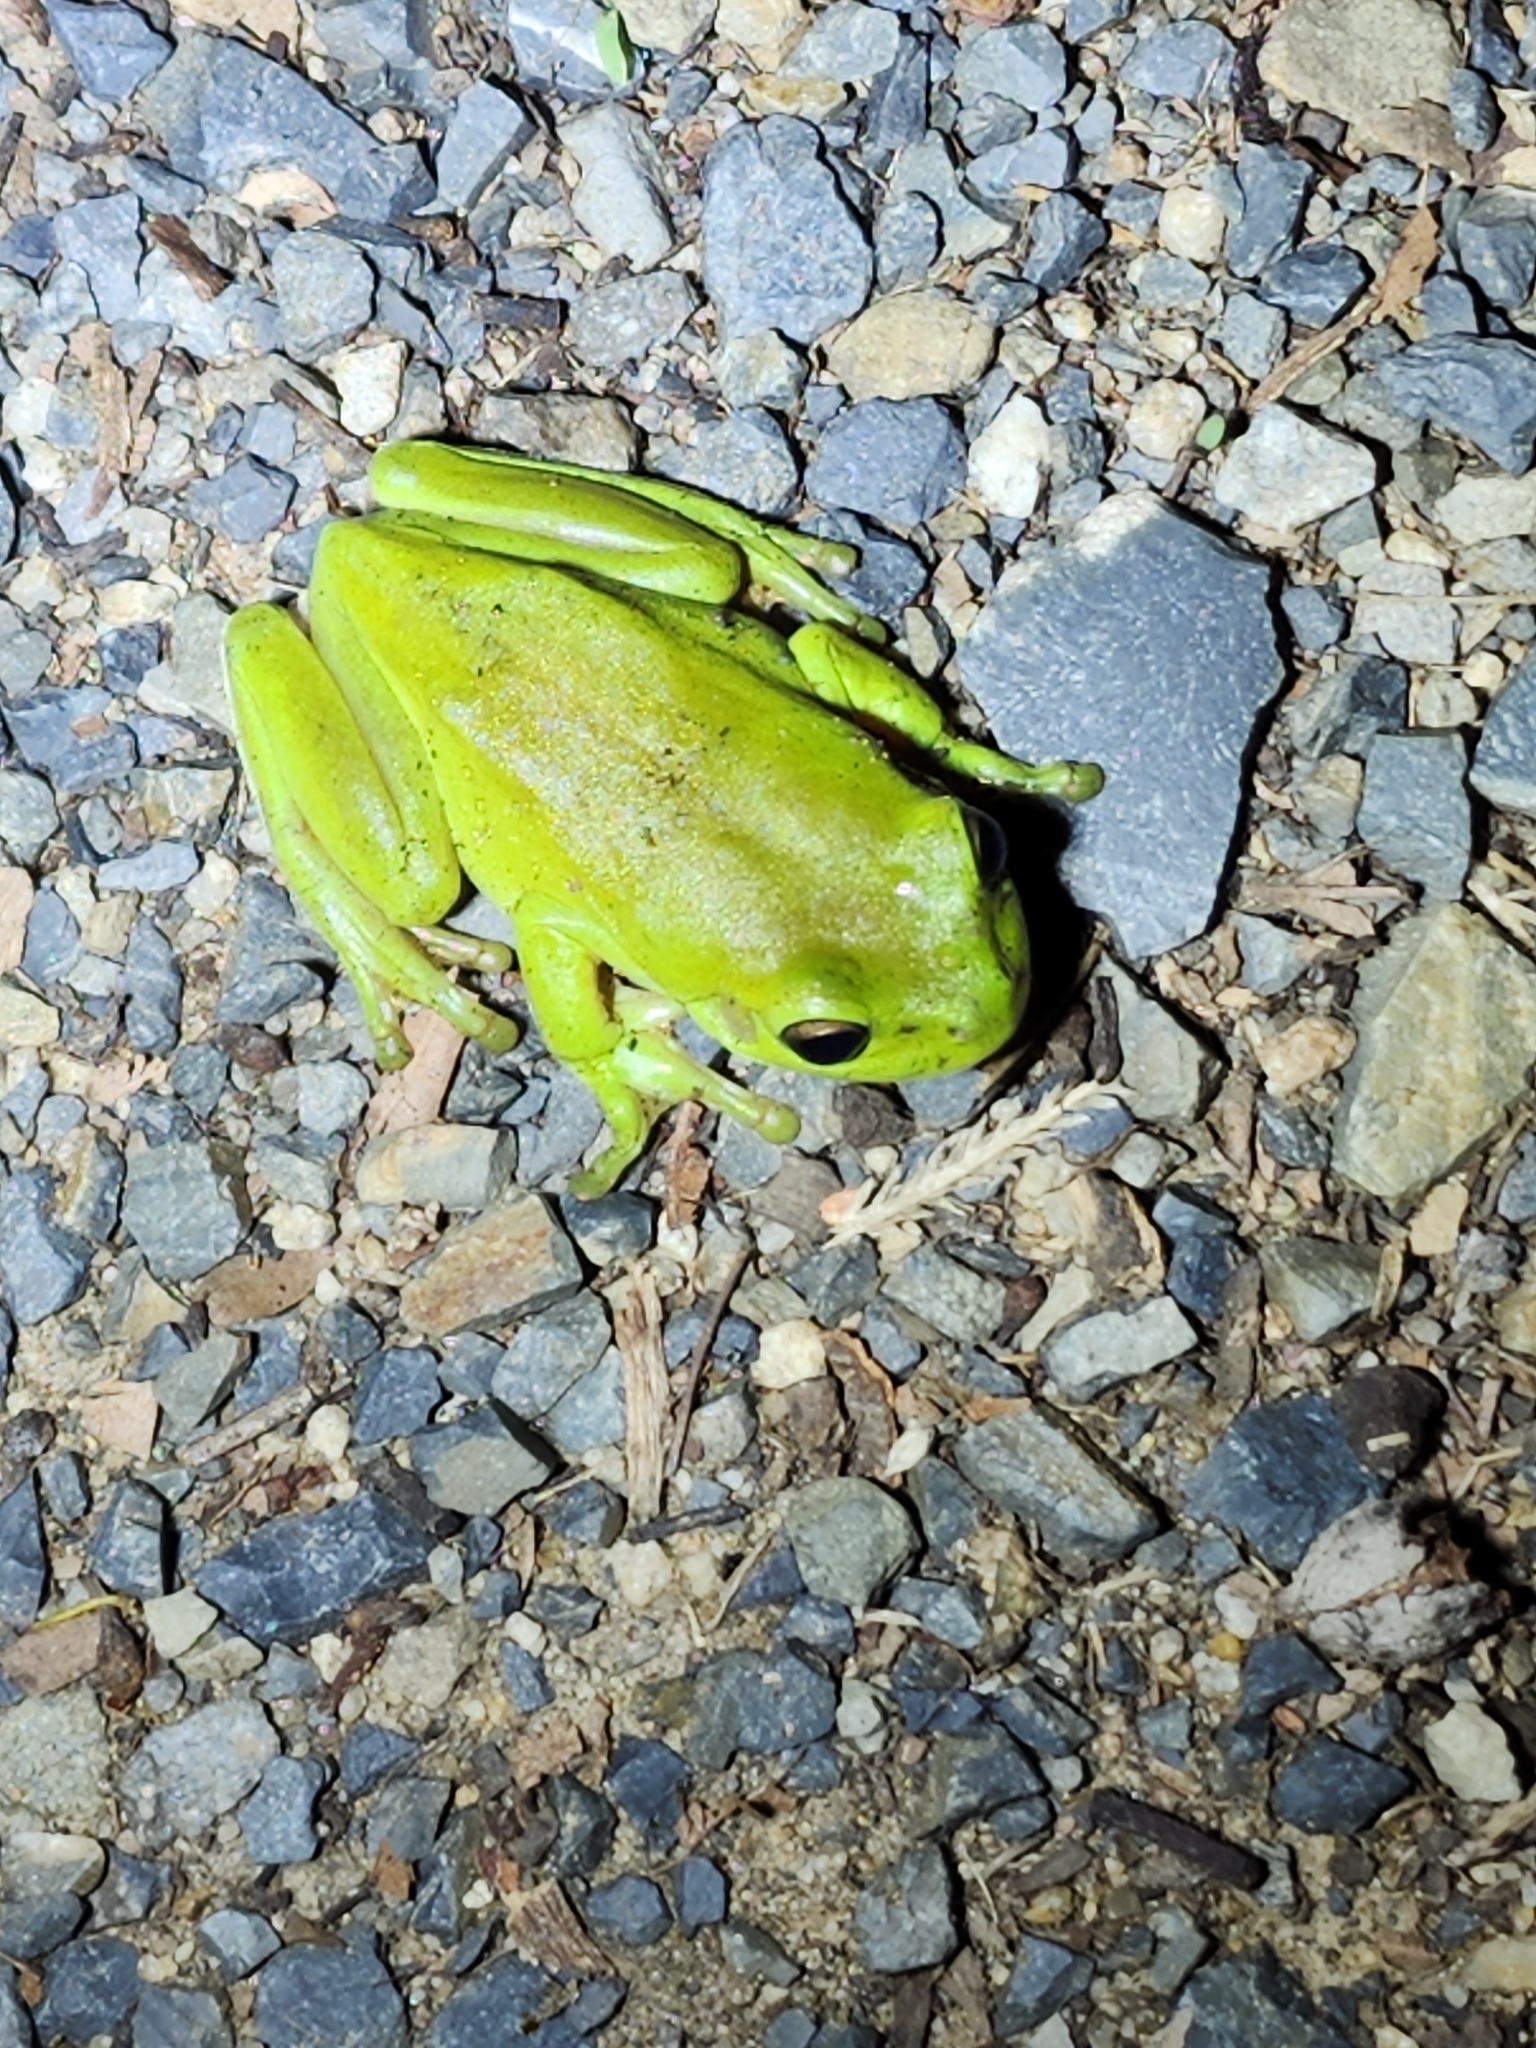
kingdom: Animalia
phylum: Chordata
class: Amphibia
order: Anura
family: Pelodryadidae
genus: Ranoidea
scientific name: Ranoidea caerulea
